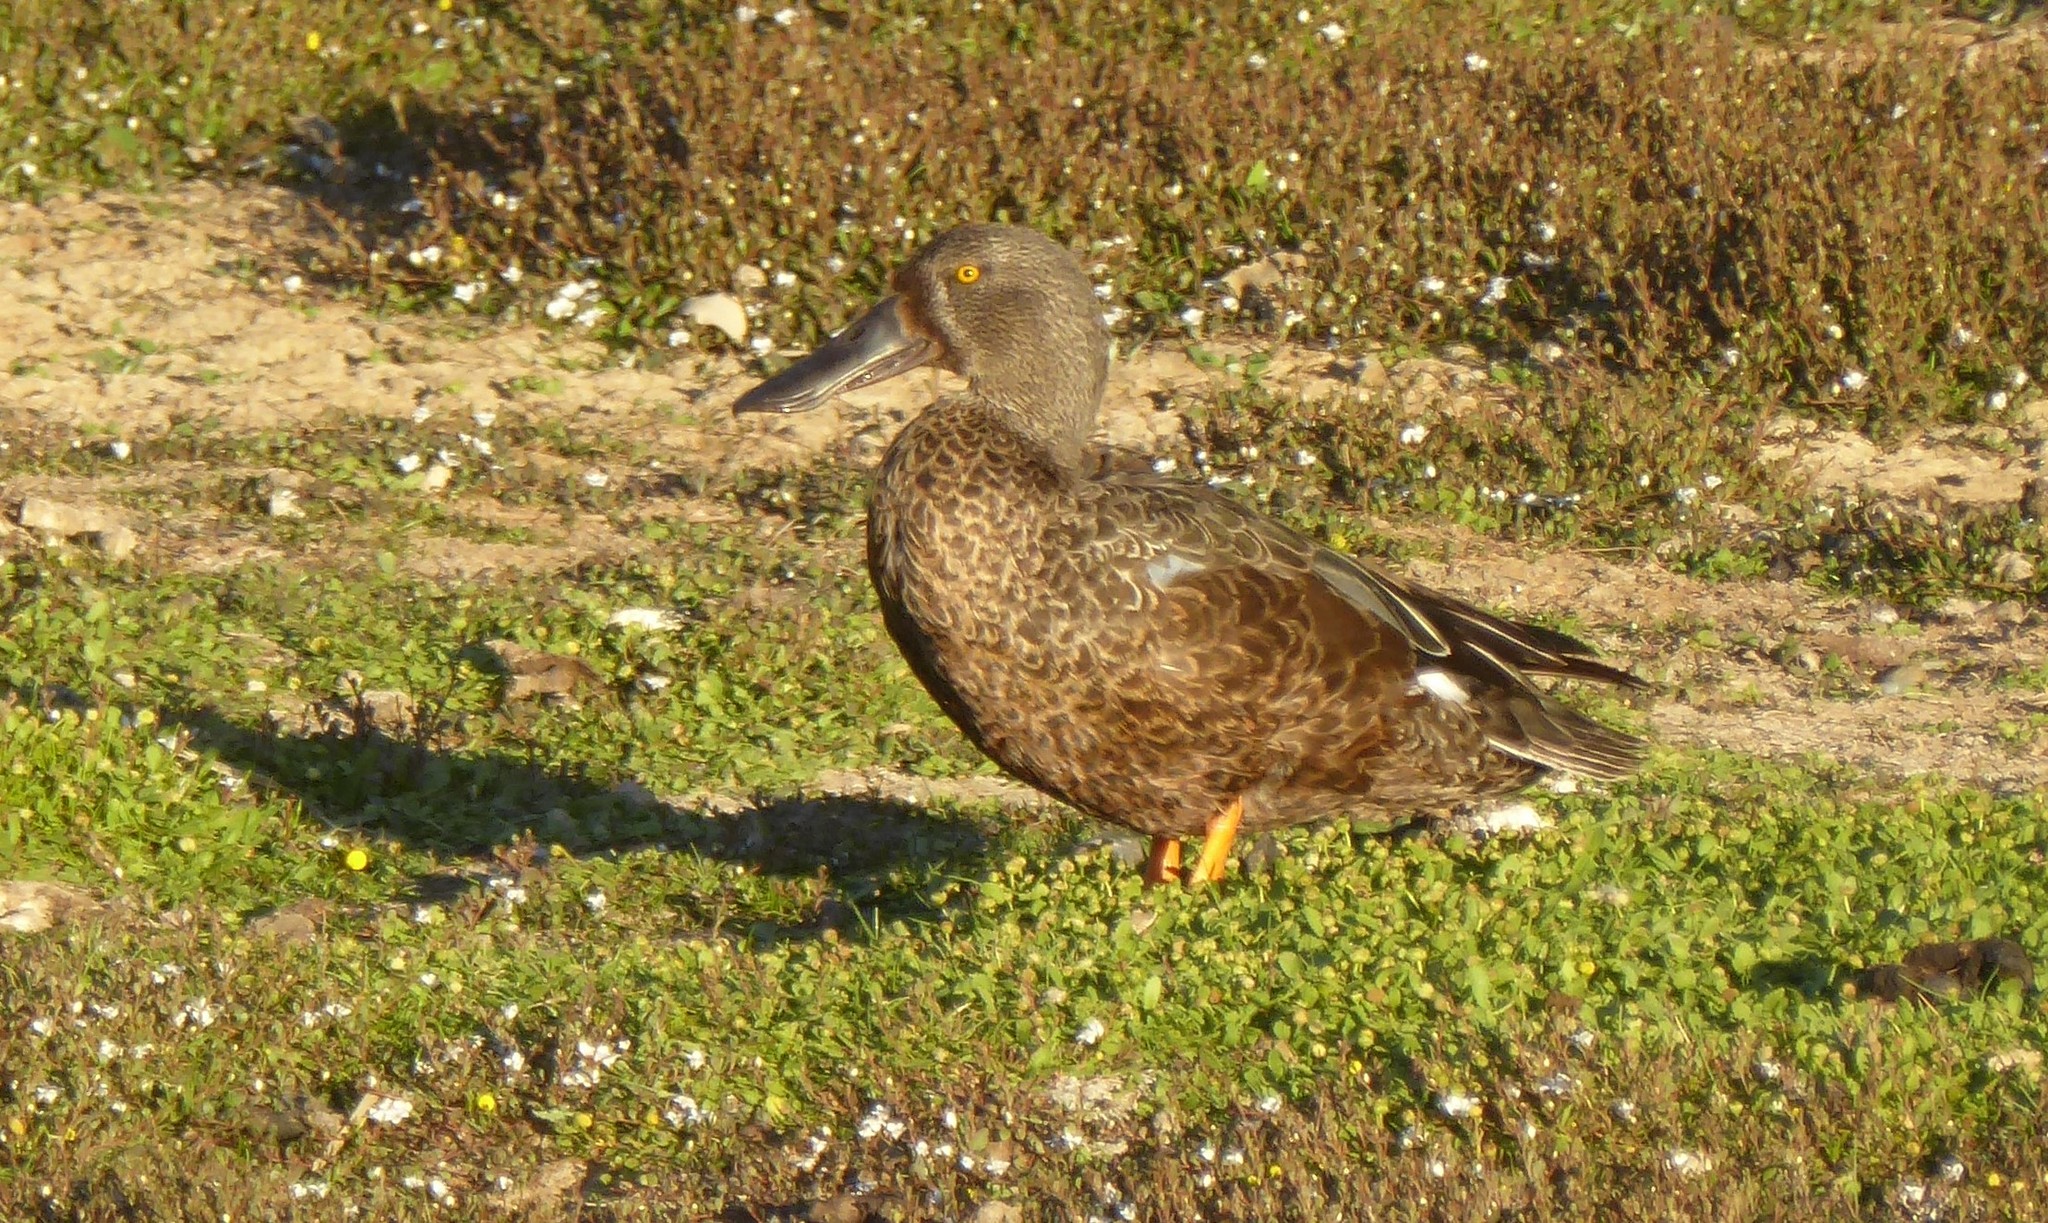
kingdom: Animalia
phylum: Chordata
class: Aves
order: Anseriformes
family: Anatidae
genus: Spatula
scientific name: Spatula rhynchotis
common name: Australian shoveler
